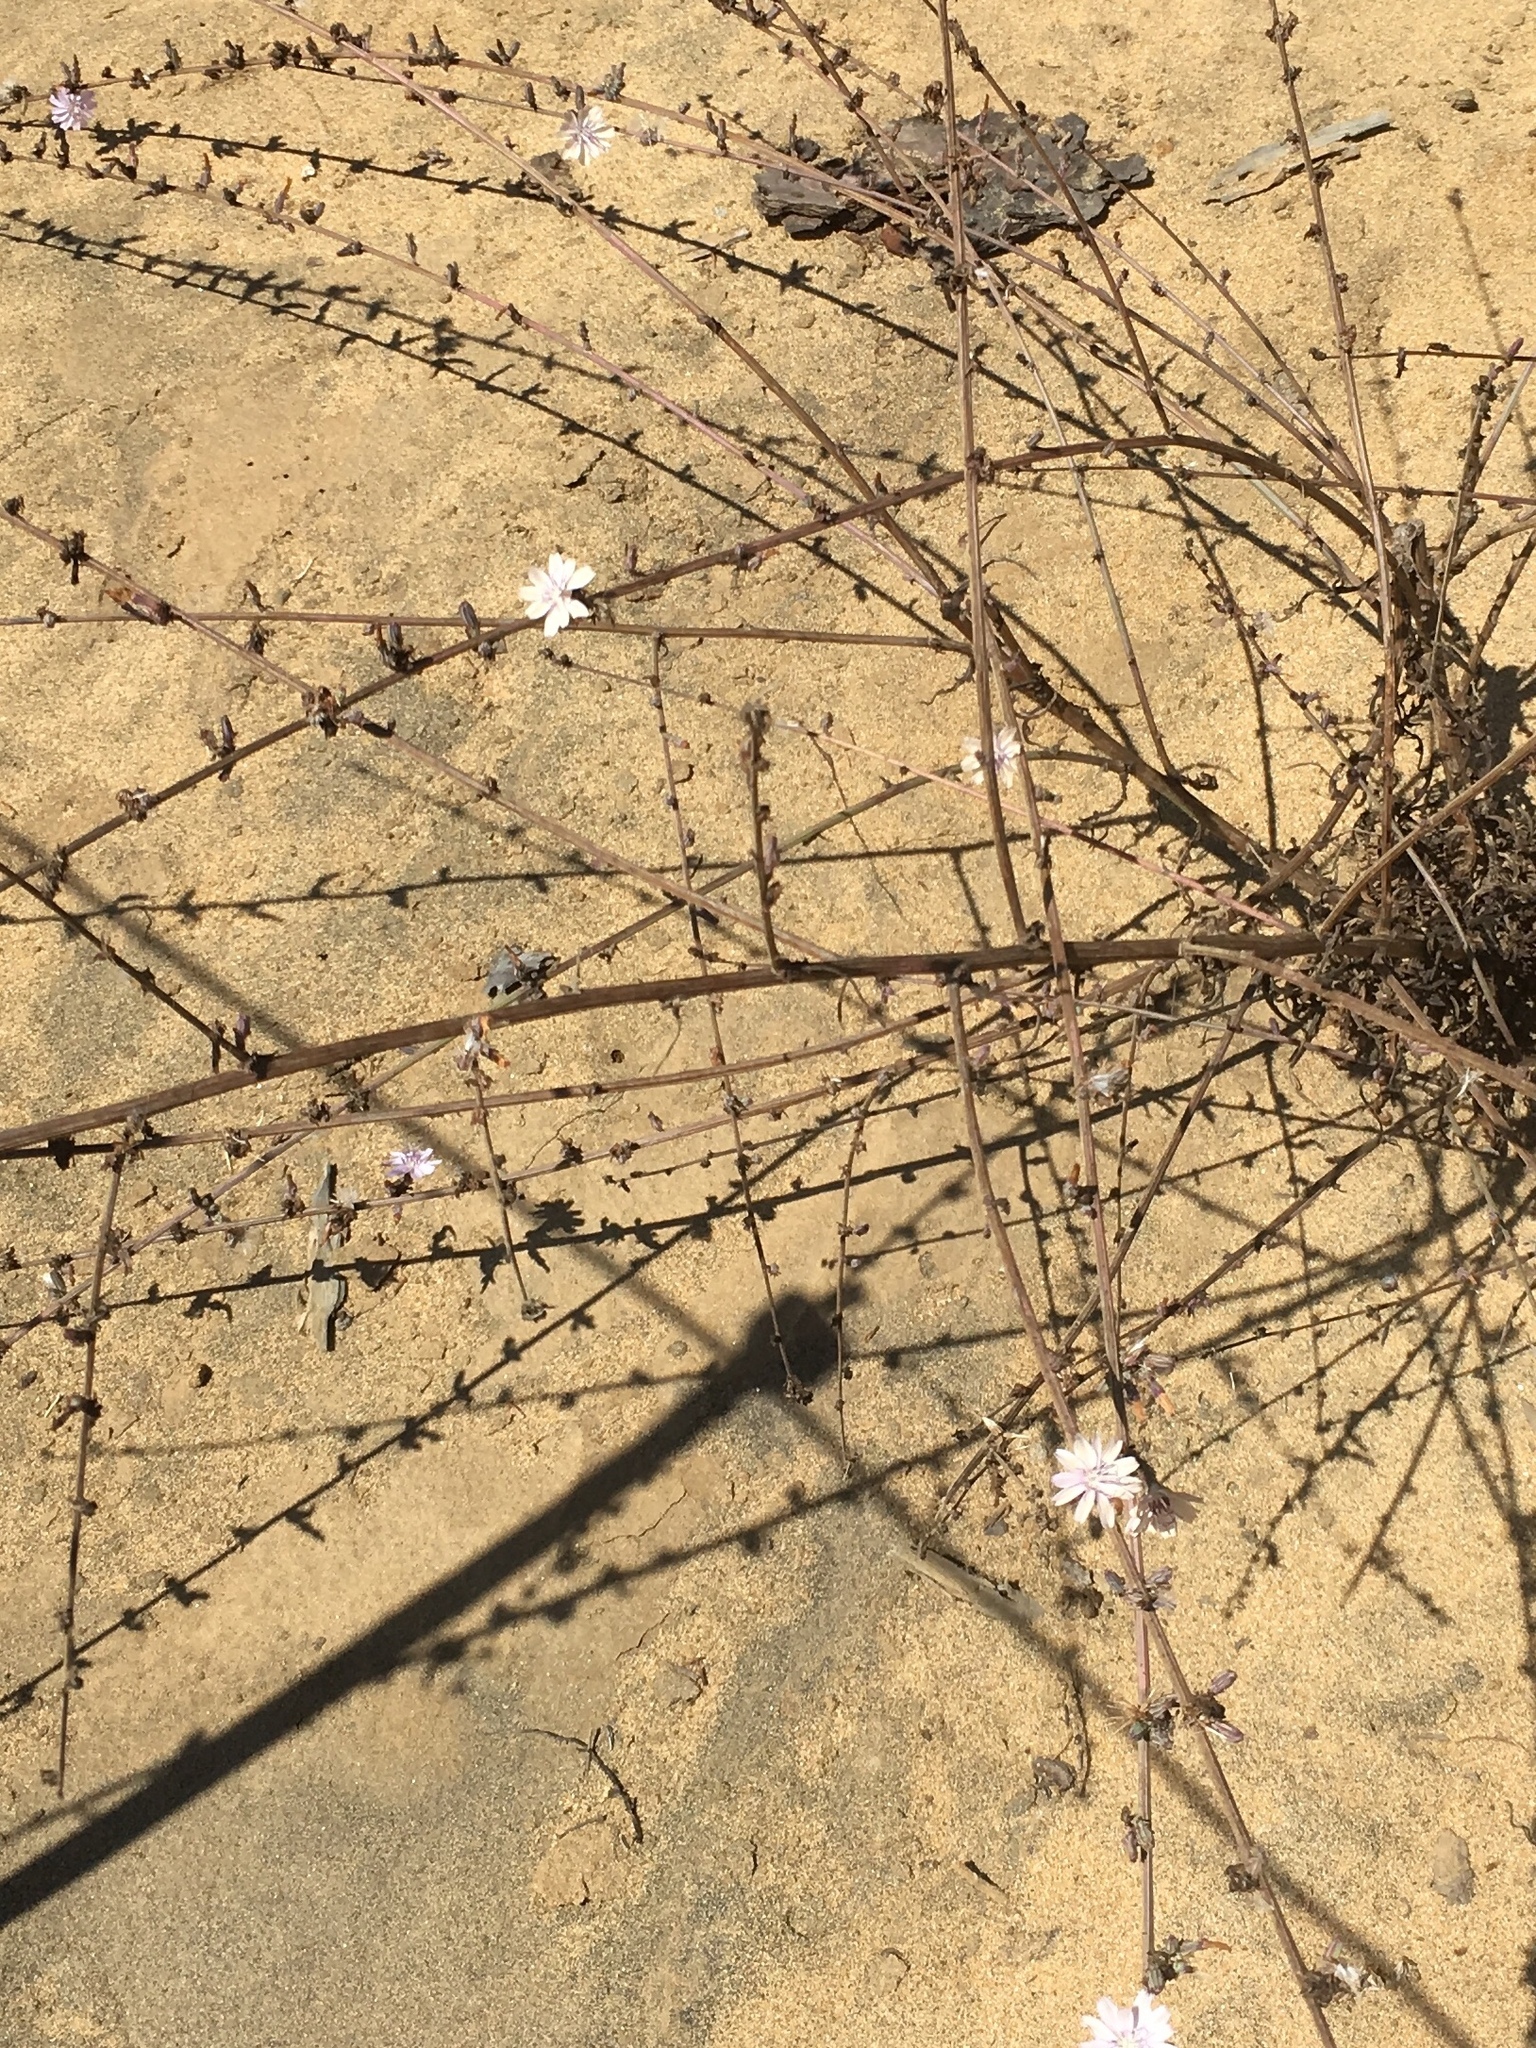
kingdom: Plantae
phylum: Tracheophyta
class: Magnoliopsida
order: Asterales
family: Asteraceae
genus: Stephanomeria
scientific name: Stephanomeria diegensis
